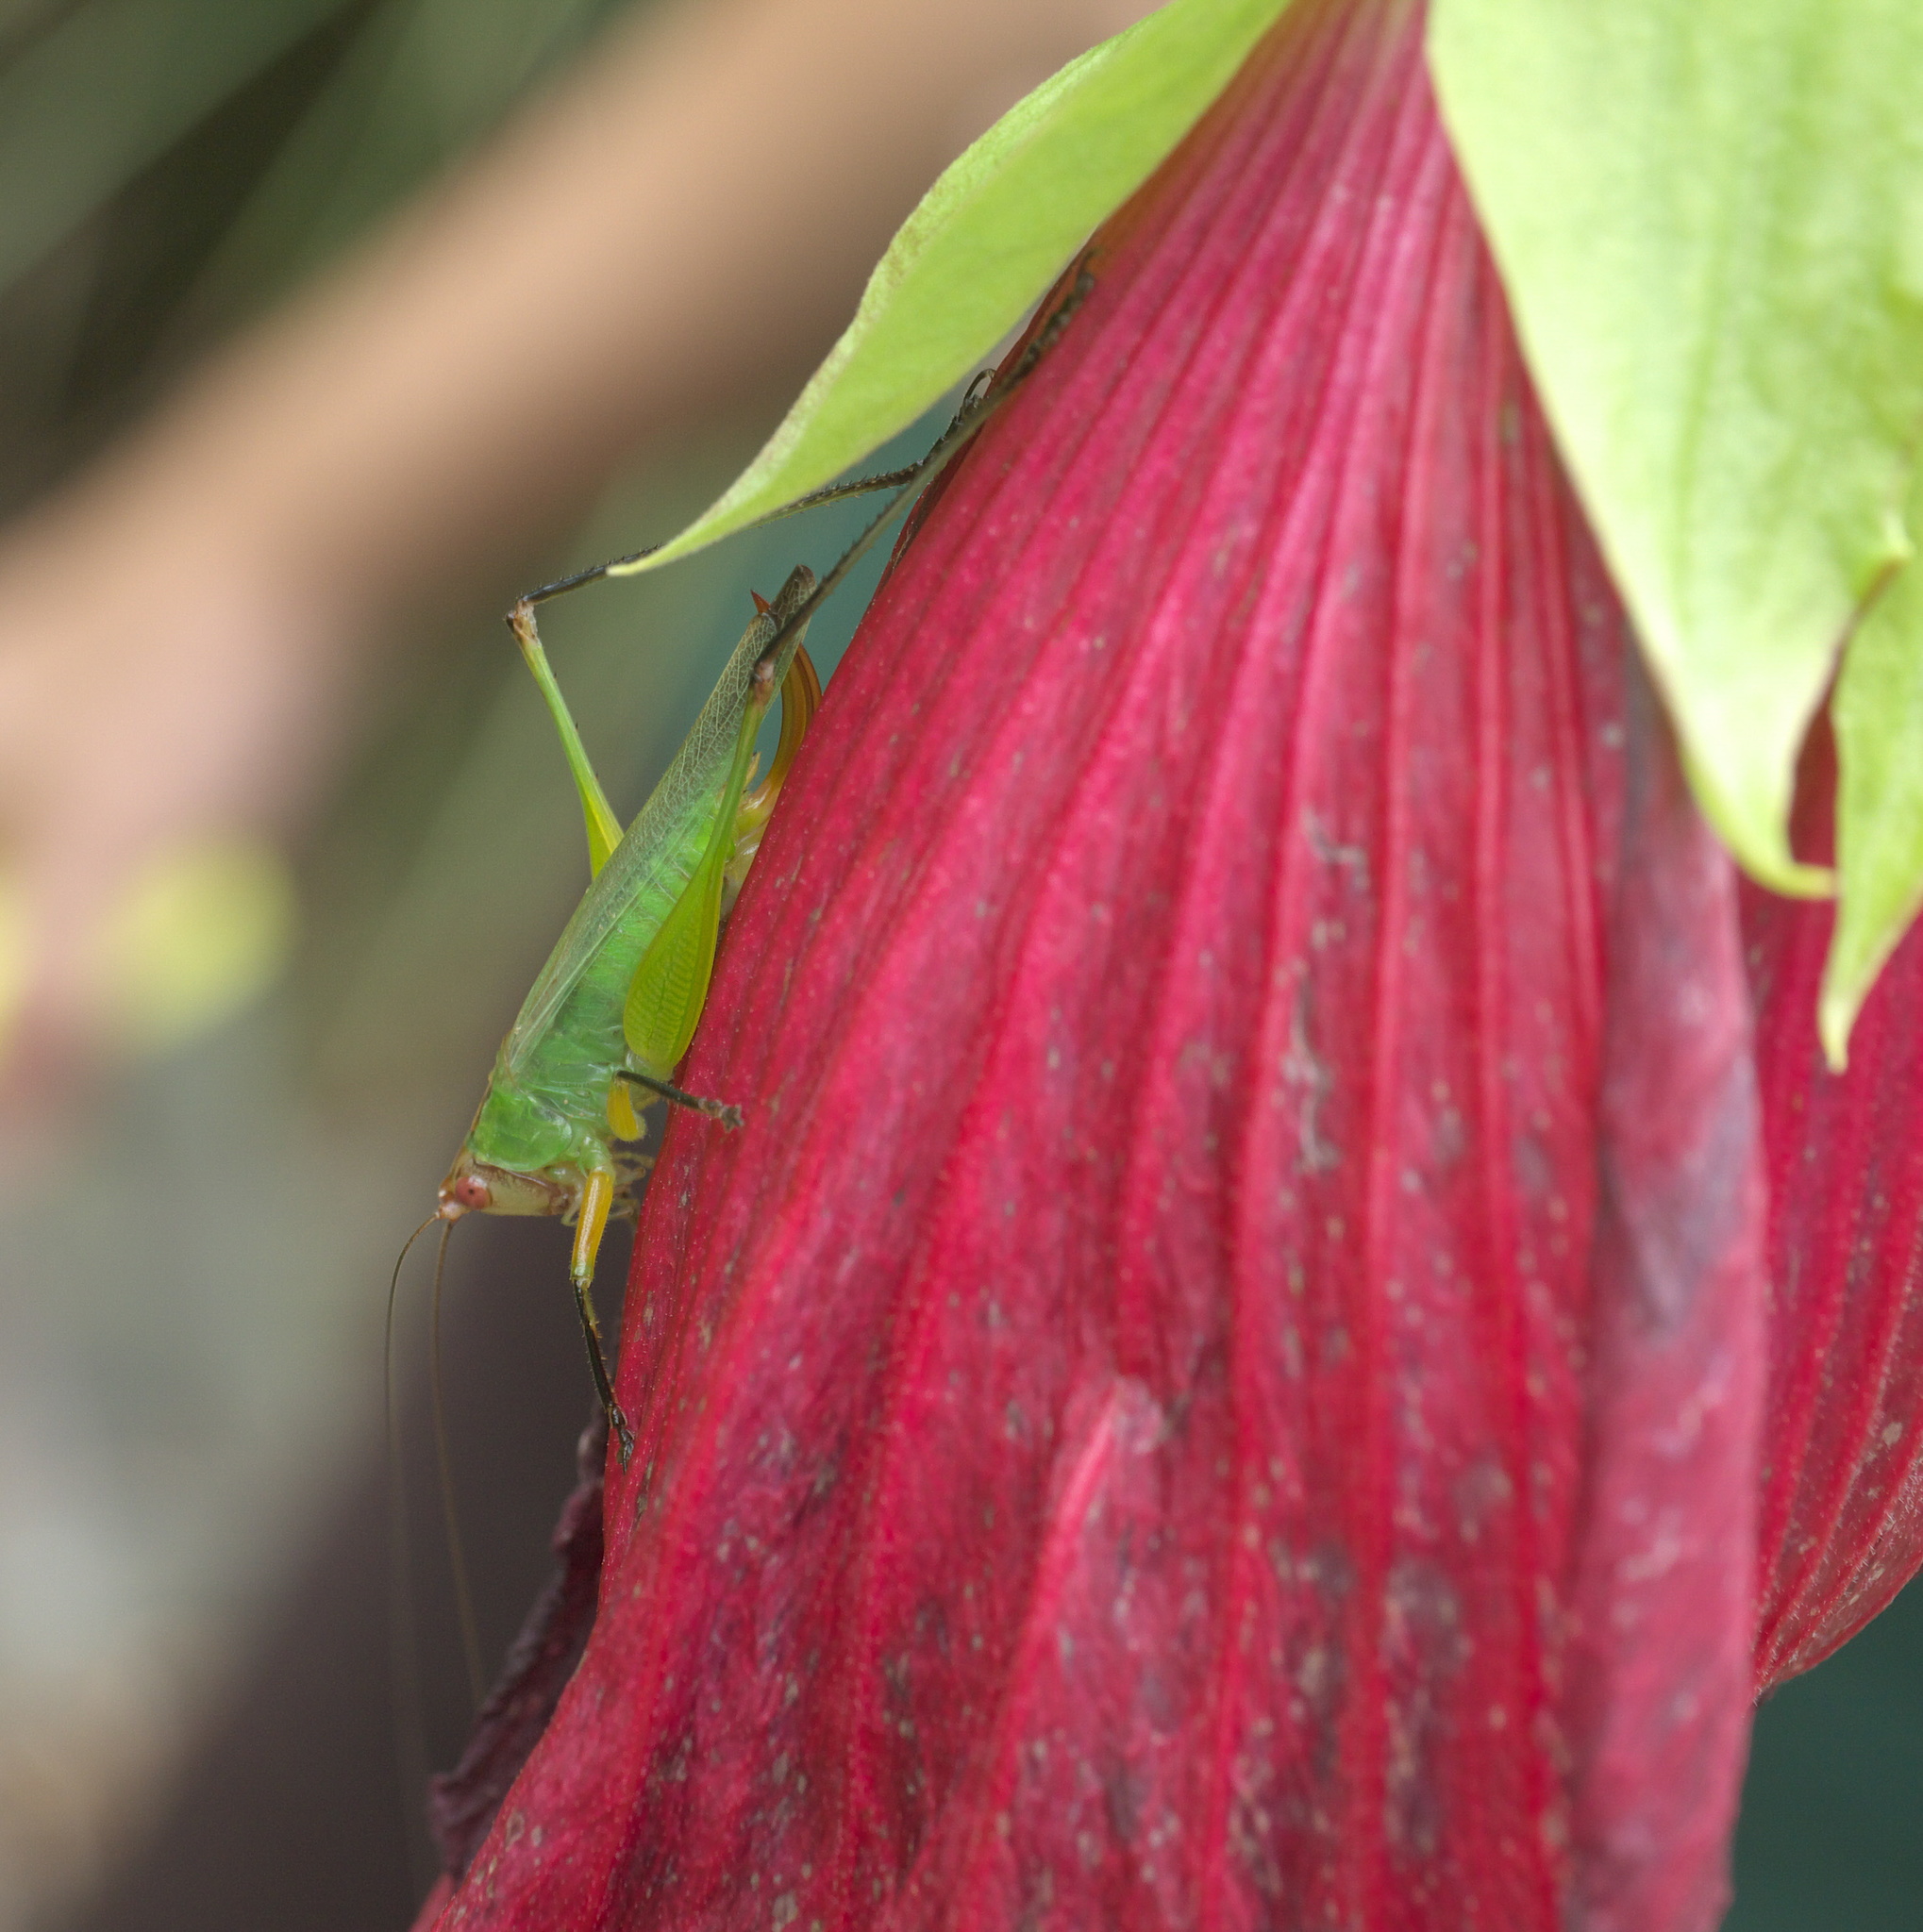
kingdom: Animalia
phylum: Arthropoda
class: Insecta
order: Orthoptera
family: Tettigoniidae
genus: Orchelimum
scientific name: Orchelimum nigripes
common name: Black-legged meadow katydid
